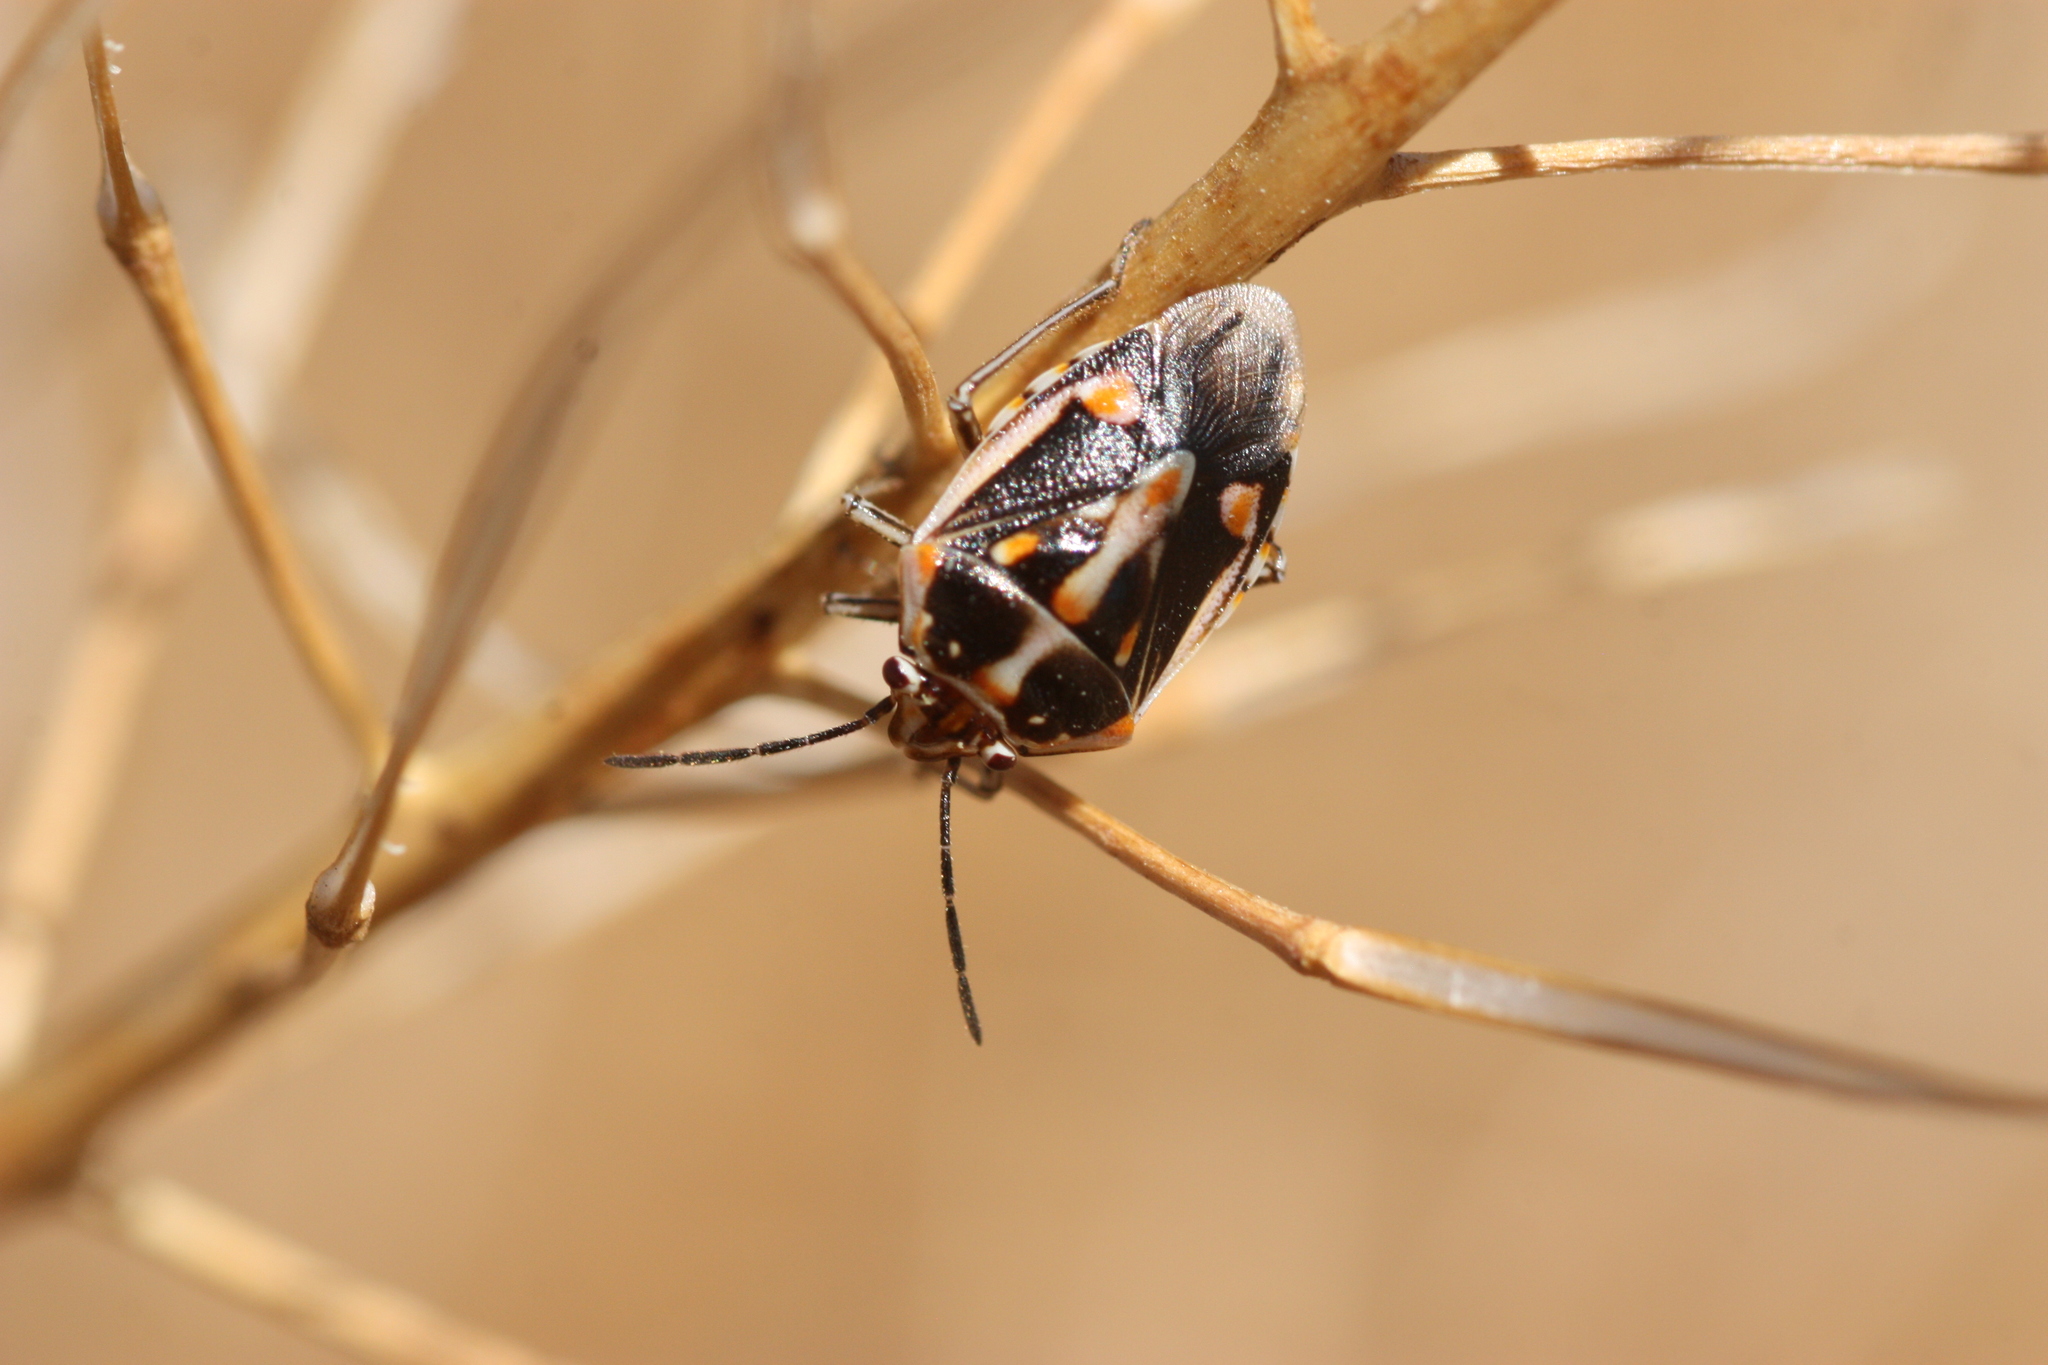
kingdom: Animalia
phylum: Arthropoda
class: Insecta
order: Hemiptera
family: Pentatomidae
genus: Bagrada
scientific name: Bagrada hilaris
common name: Bagrada bug
